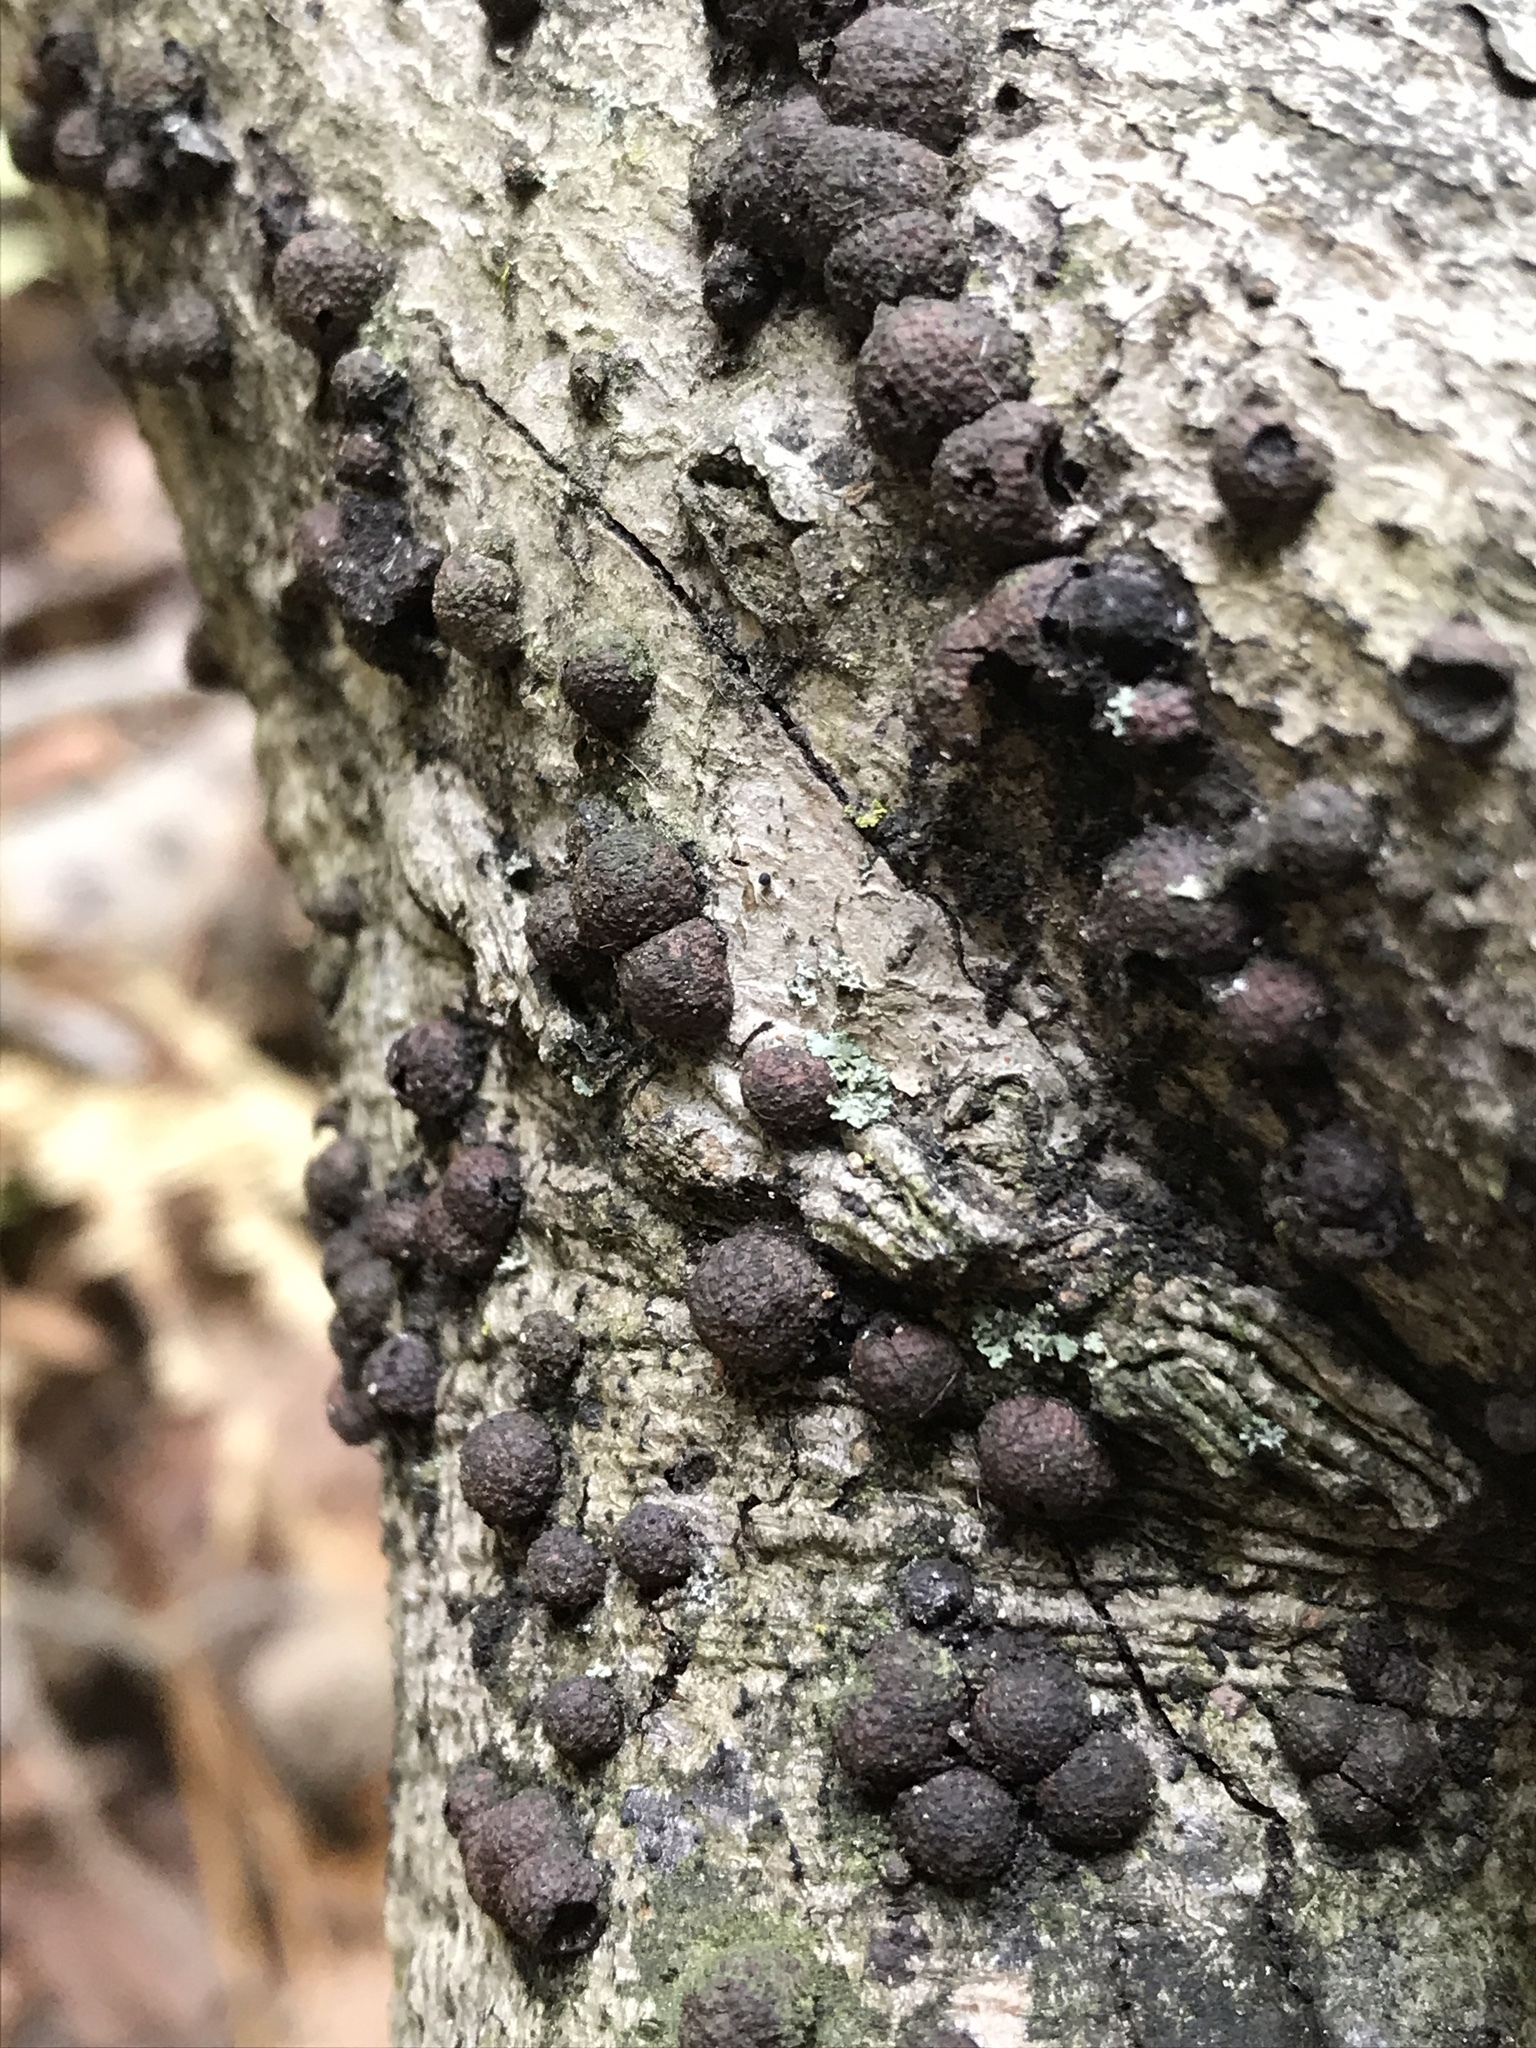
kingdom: Fungi
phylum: Ascomycota
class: Sordariomycetes
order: Xylariales
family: Hypoxylaceae
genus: Hypoxylon
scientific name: Hypoxylon fragiforme
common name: Beech woodwart
